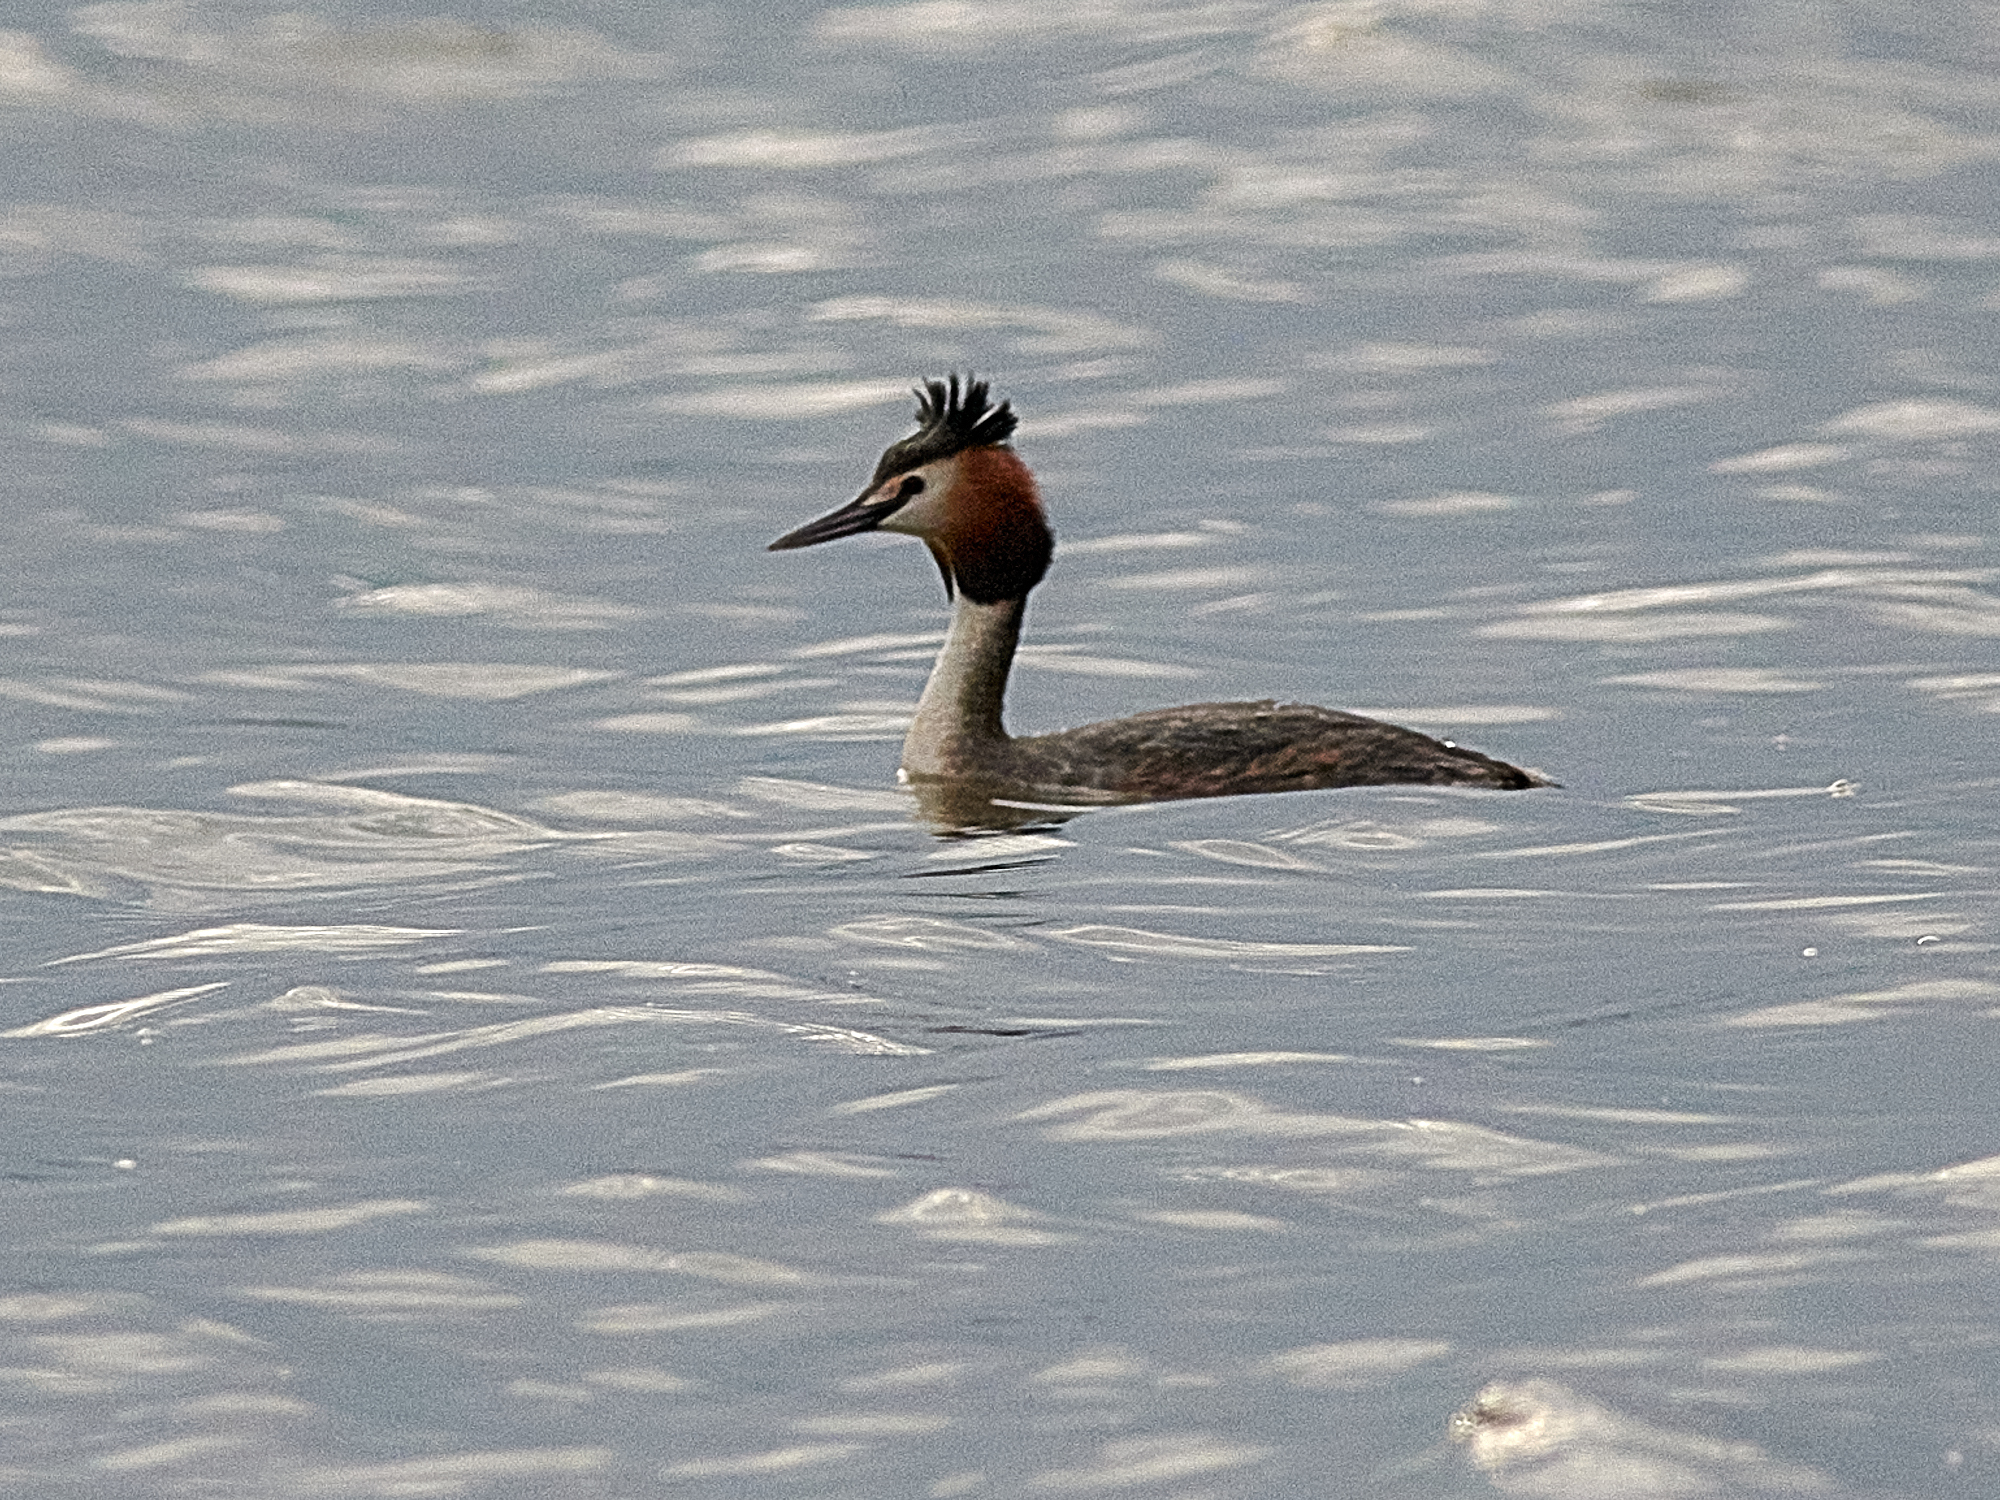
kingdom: Animalia
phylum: Chordata
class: Aves
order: Podicipediformes
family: Podicipedidae
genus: Podiceps
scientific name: Podiceps cristatus
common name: Great crested grebe
